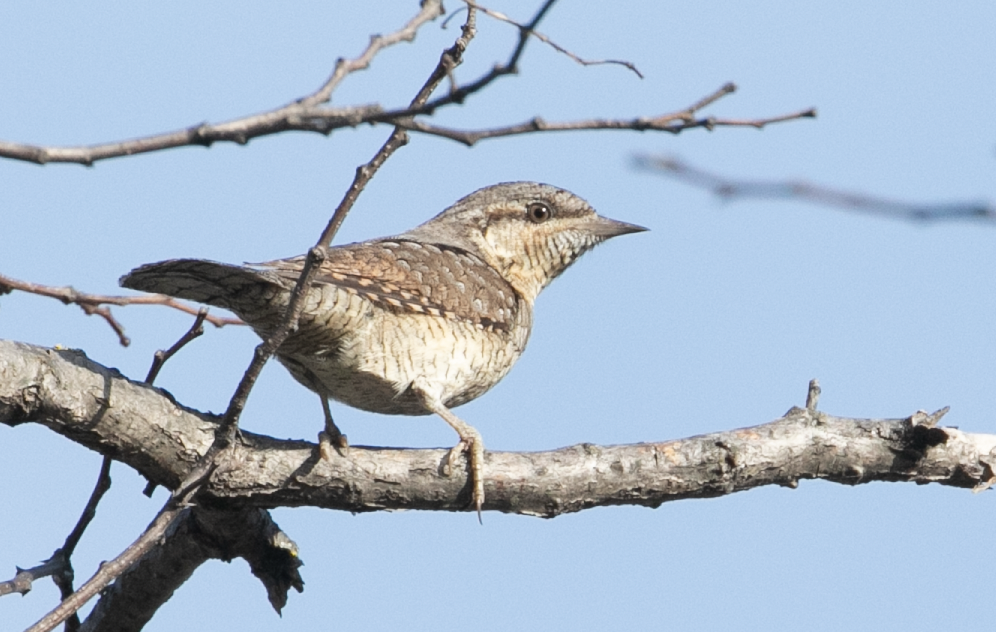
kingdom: Animalia
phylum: Chordata
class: Aves
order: Piciformes
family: Picidae
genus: Jynx
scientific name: Jynx torquilla
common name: Eurasian wryneck
